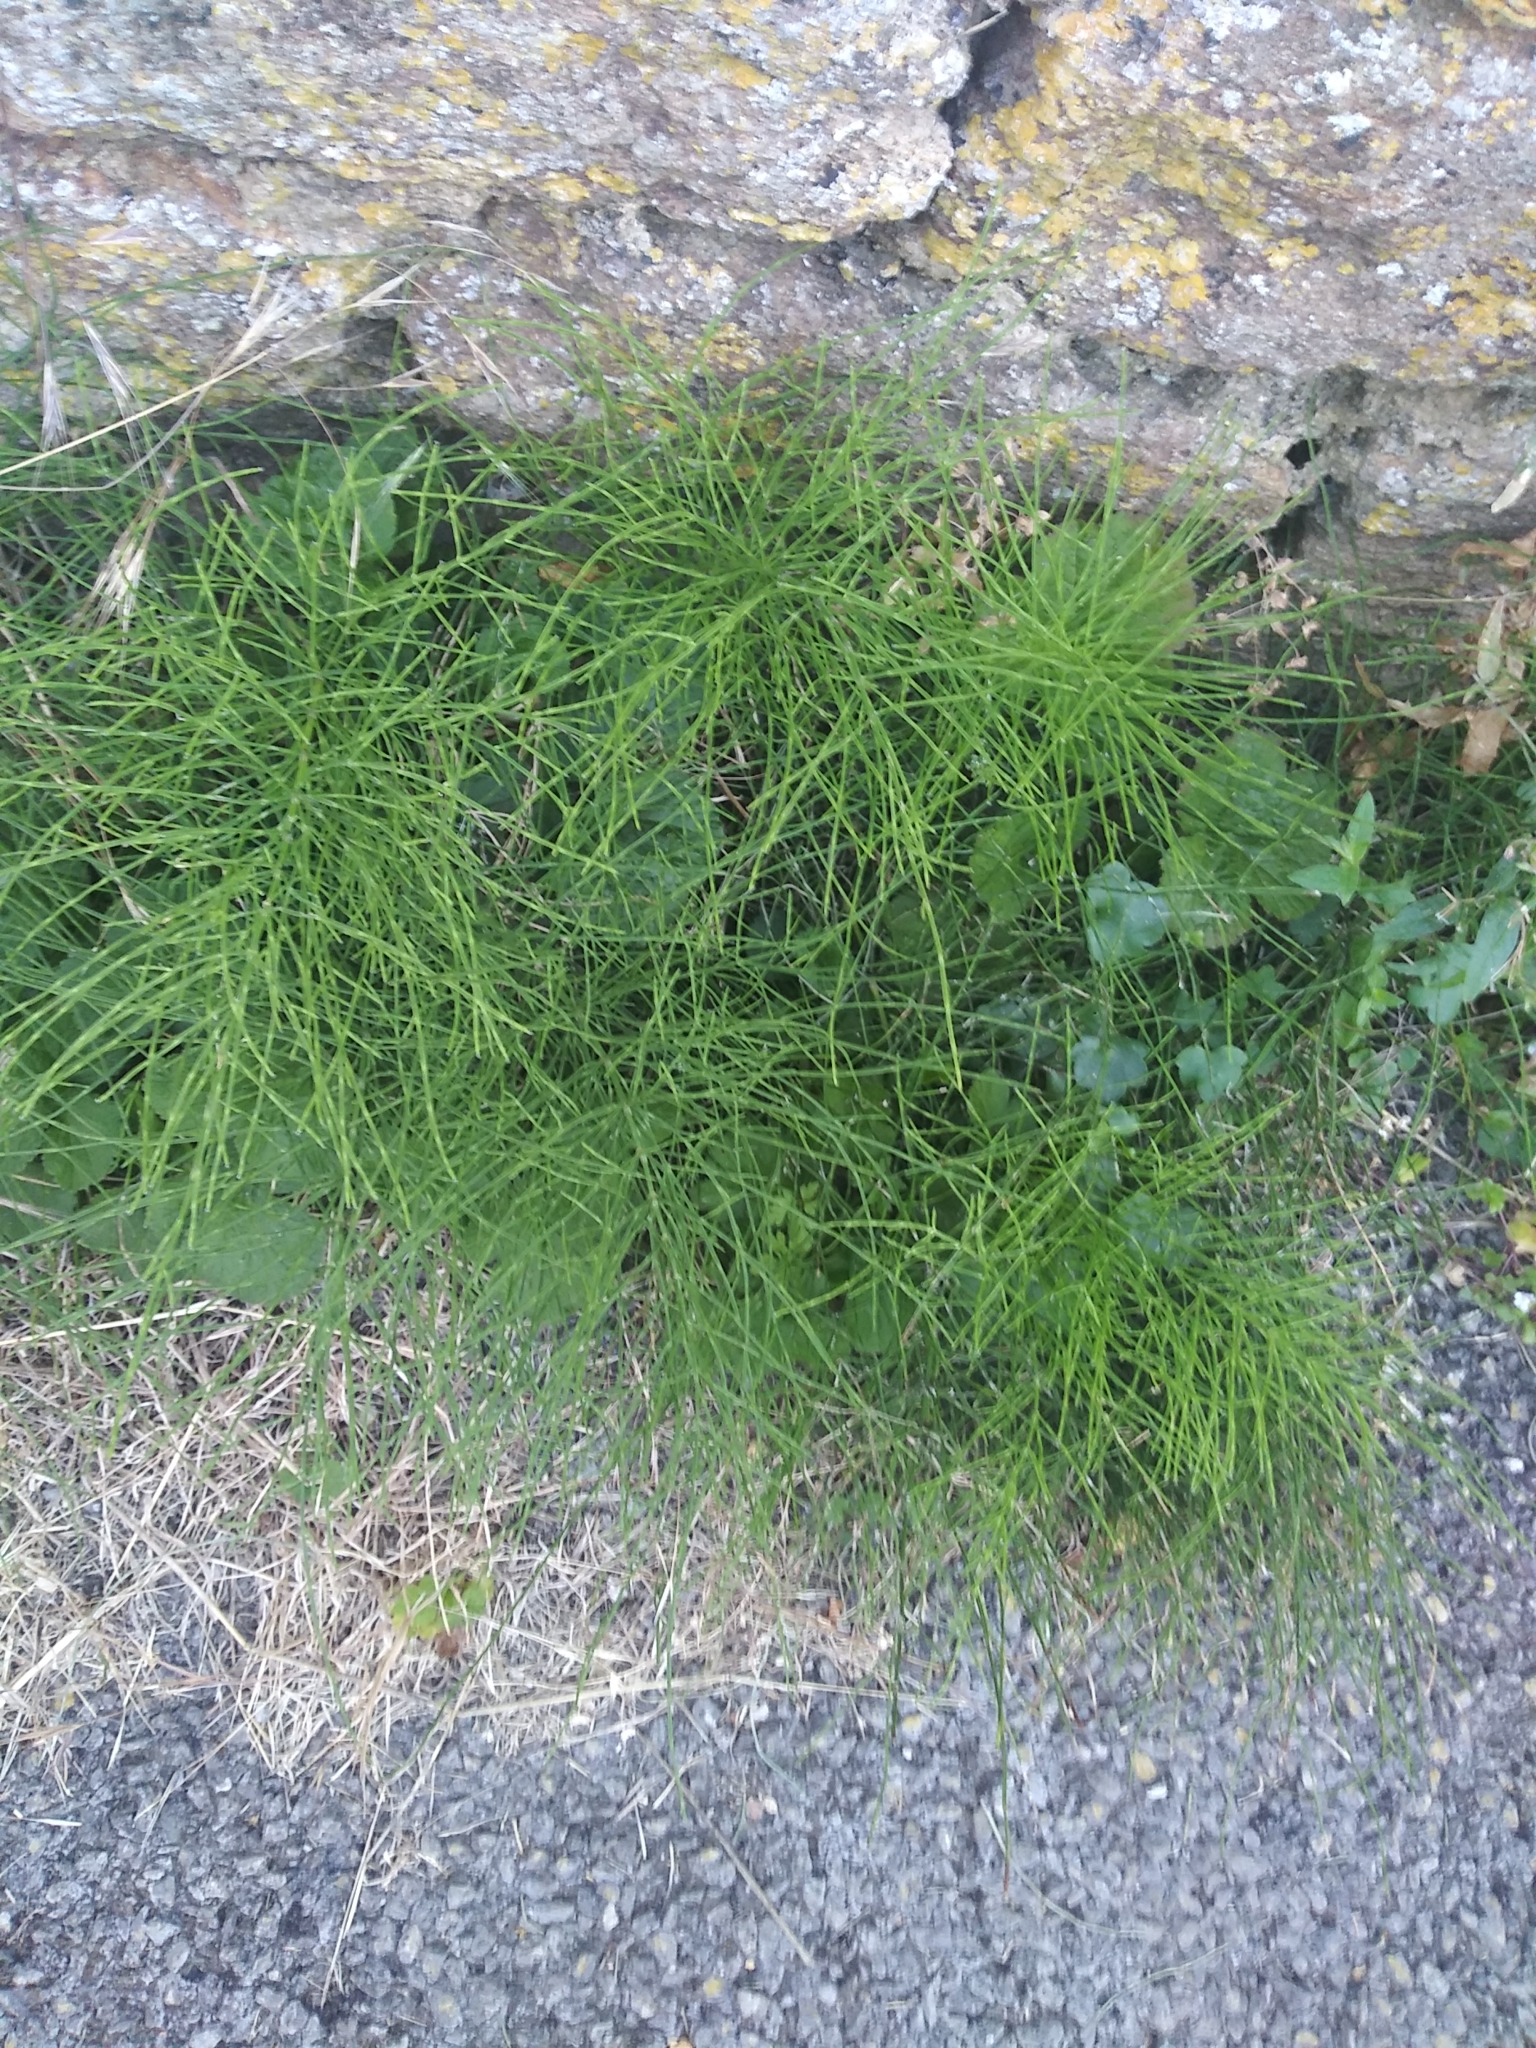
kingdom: Plantae
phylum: Tracheophyta
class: Polypodiopsida
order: Equisetales
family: Equisetaceae
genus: Equisetum
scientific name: Equisetum arvense
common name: Field horsetail
